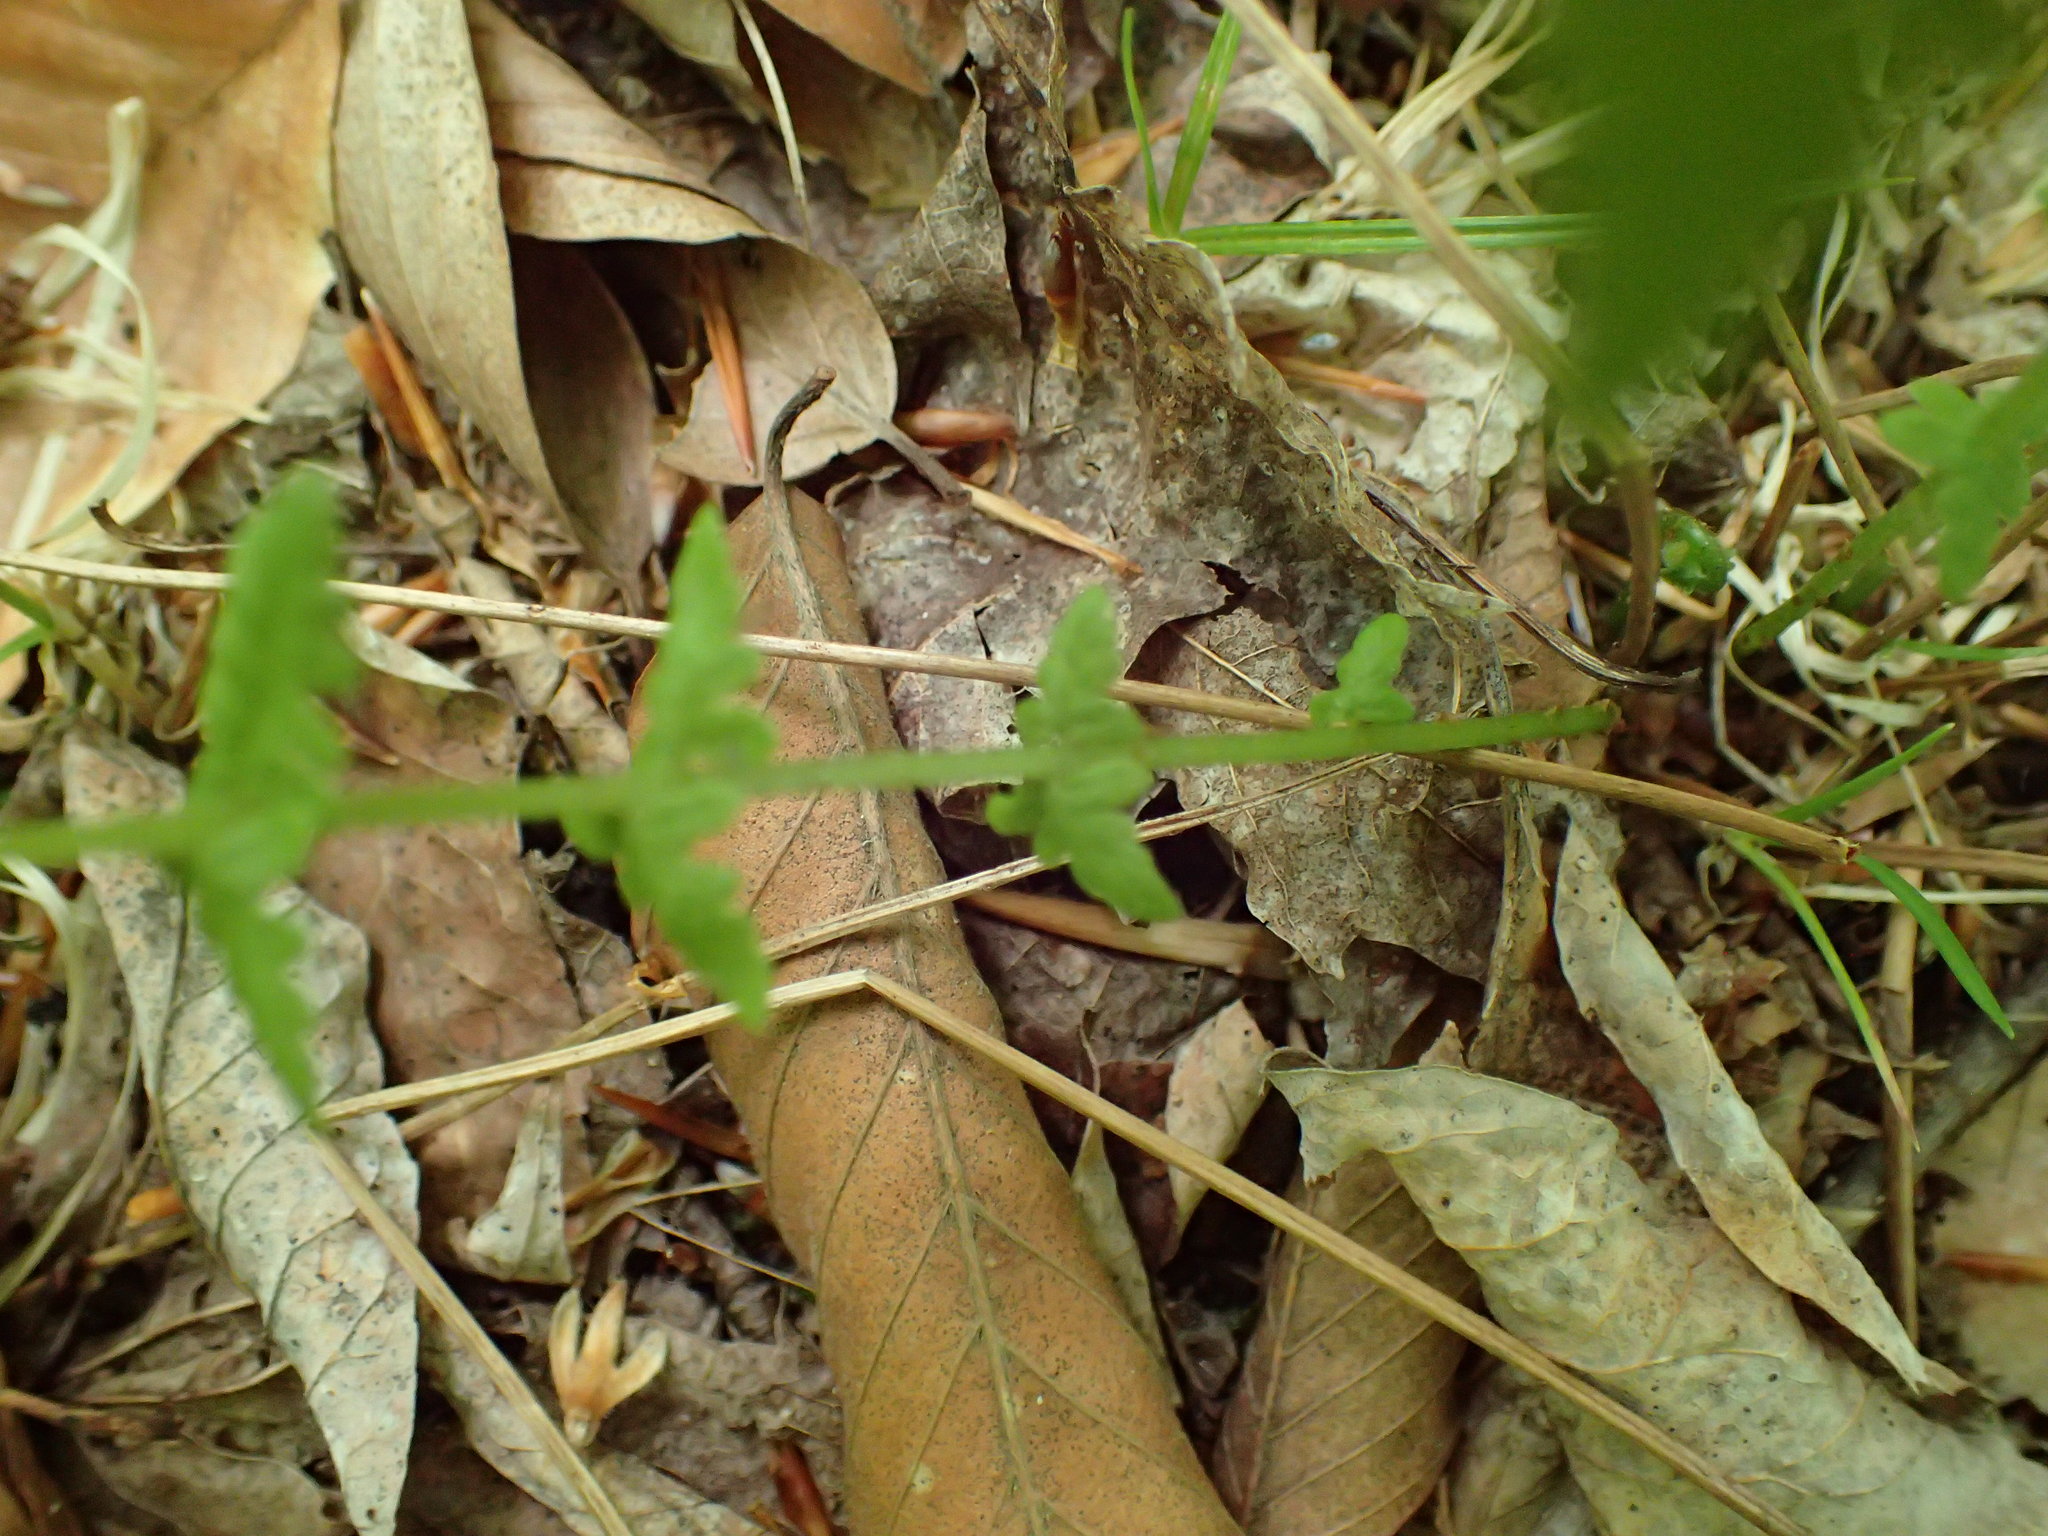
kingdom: Plantae
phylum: Tracheophyta
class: Polypodiopsida
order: Polypodiales
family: Thelypteridaceae
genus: Amauropelta
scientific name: Amauropelta noveboracensis
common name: New york fern
